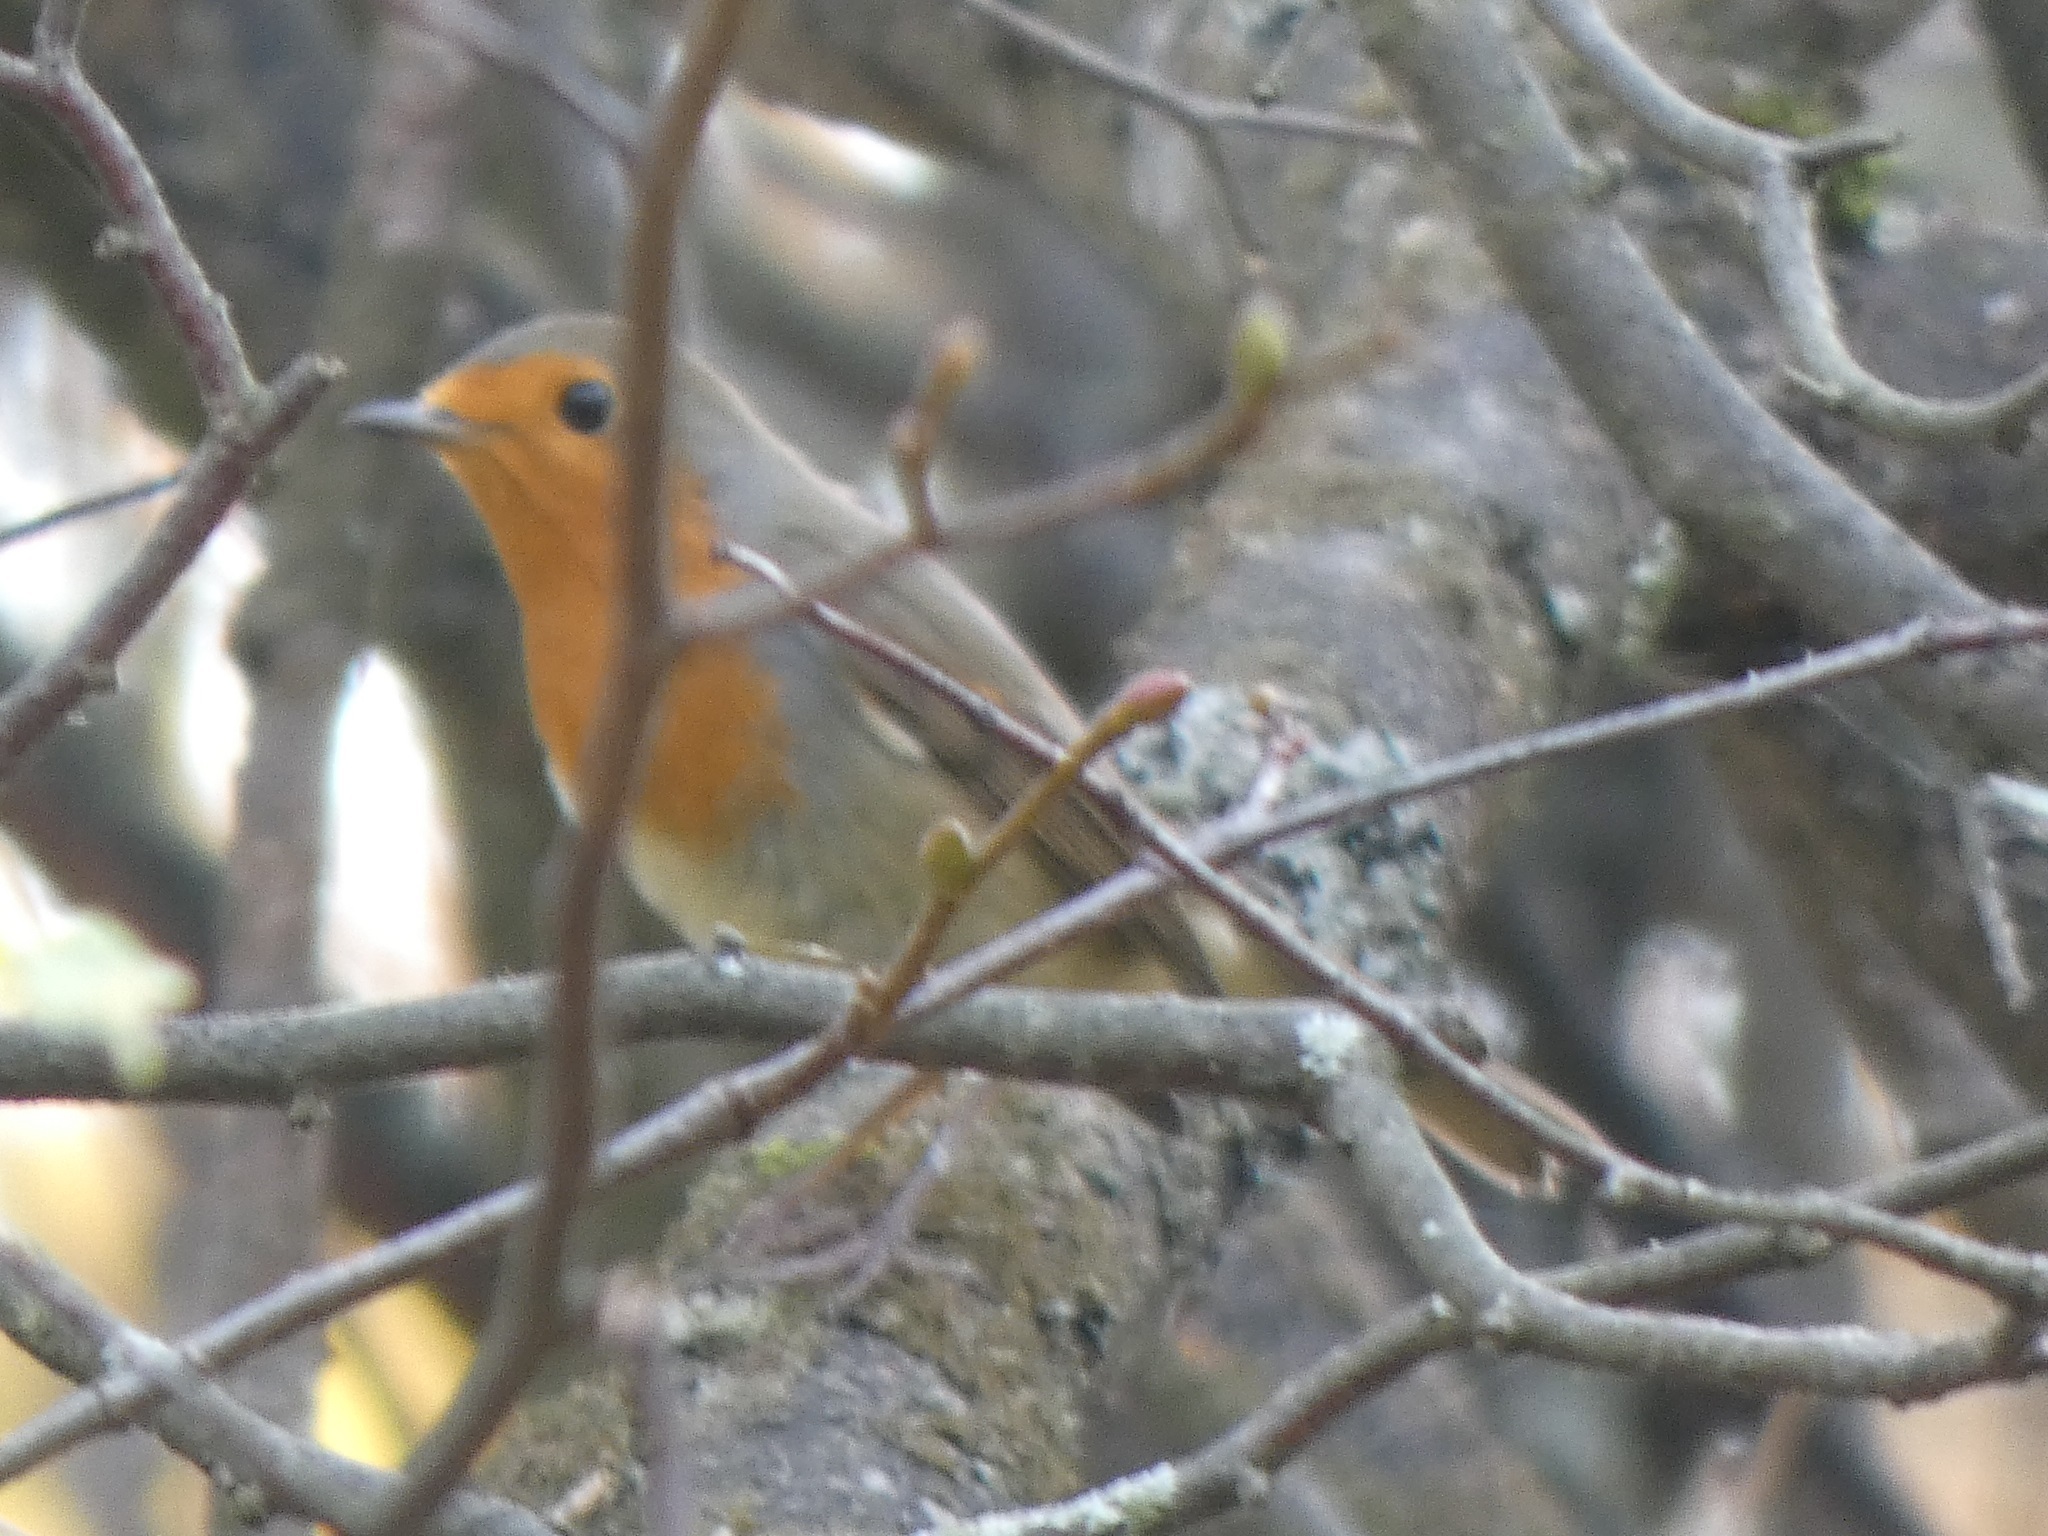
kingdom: Animalia
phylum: Chordata
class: Aves
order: Passeriformes
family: Muscicapidae
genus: Erithacus
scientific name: Erithacus rubecula
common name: European robin
